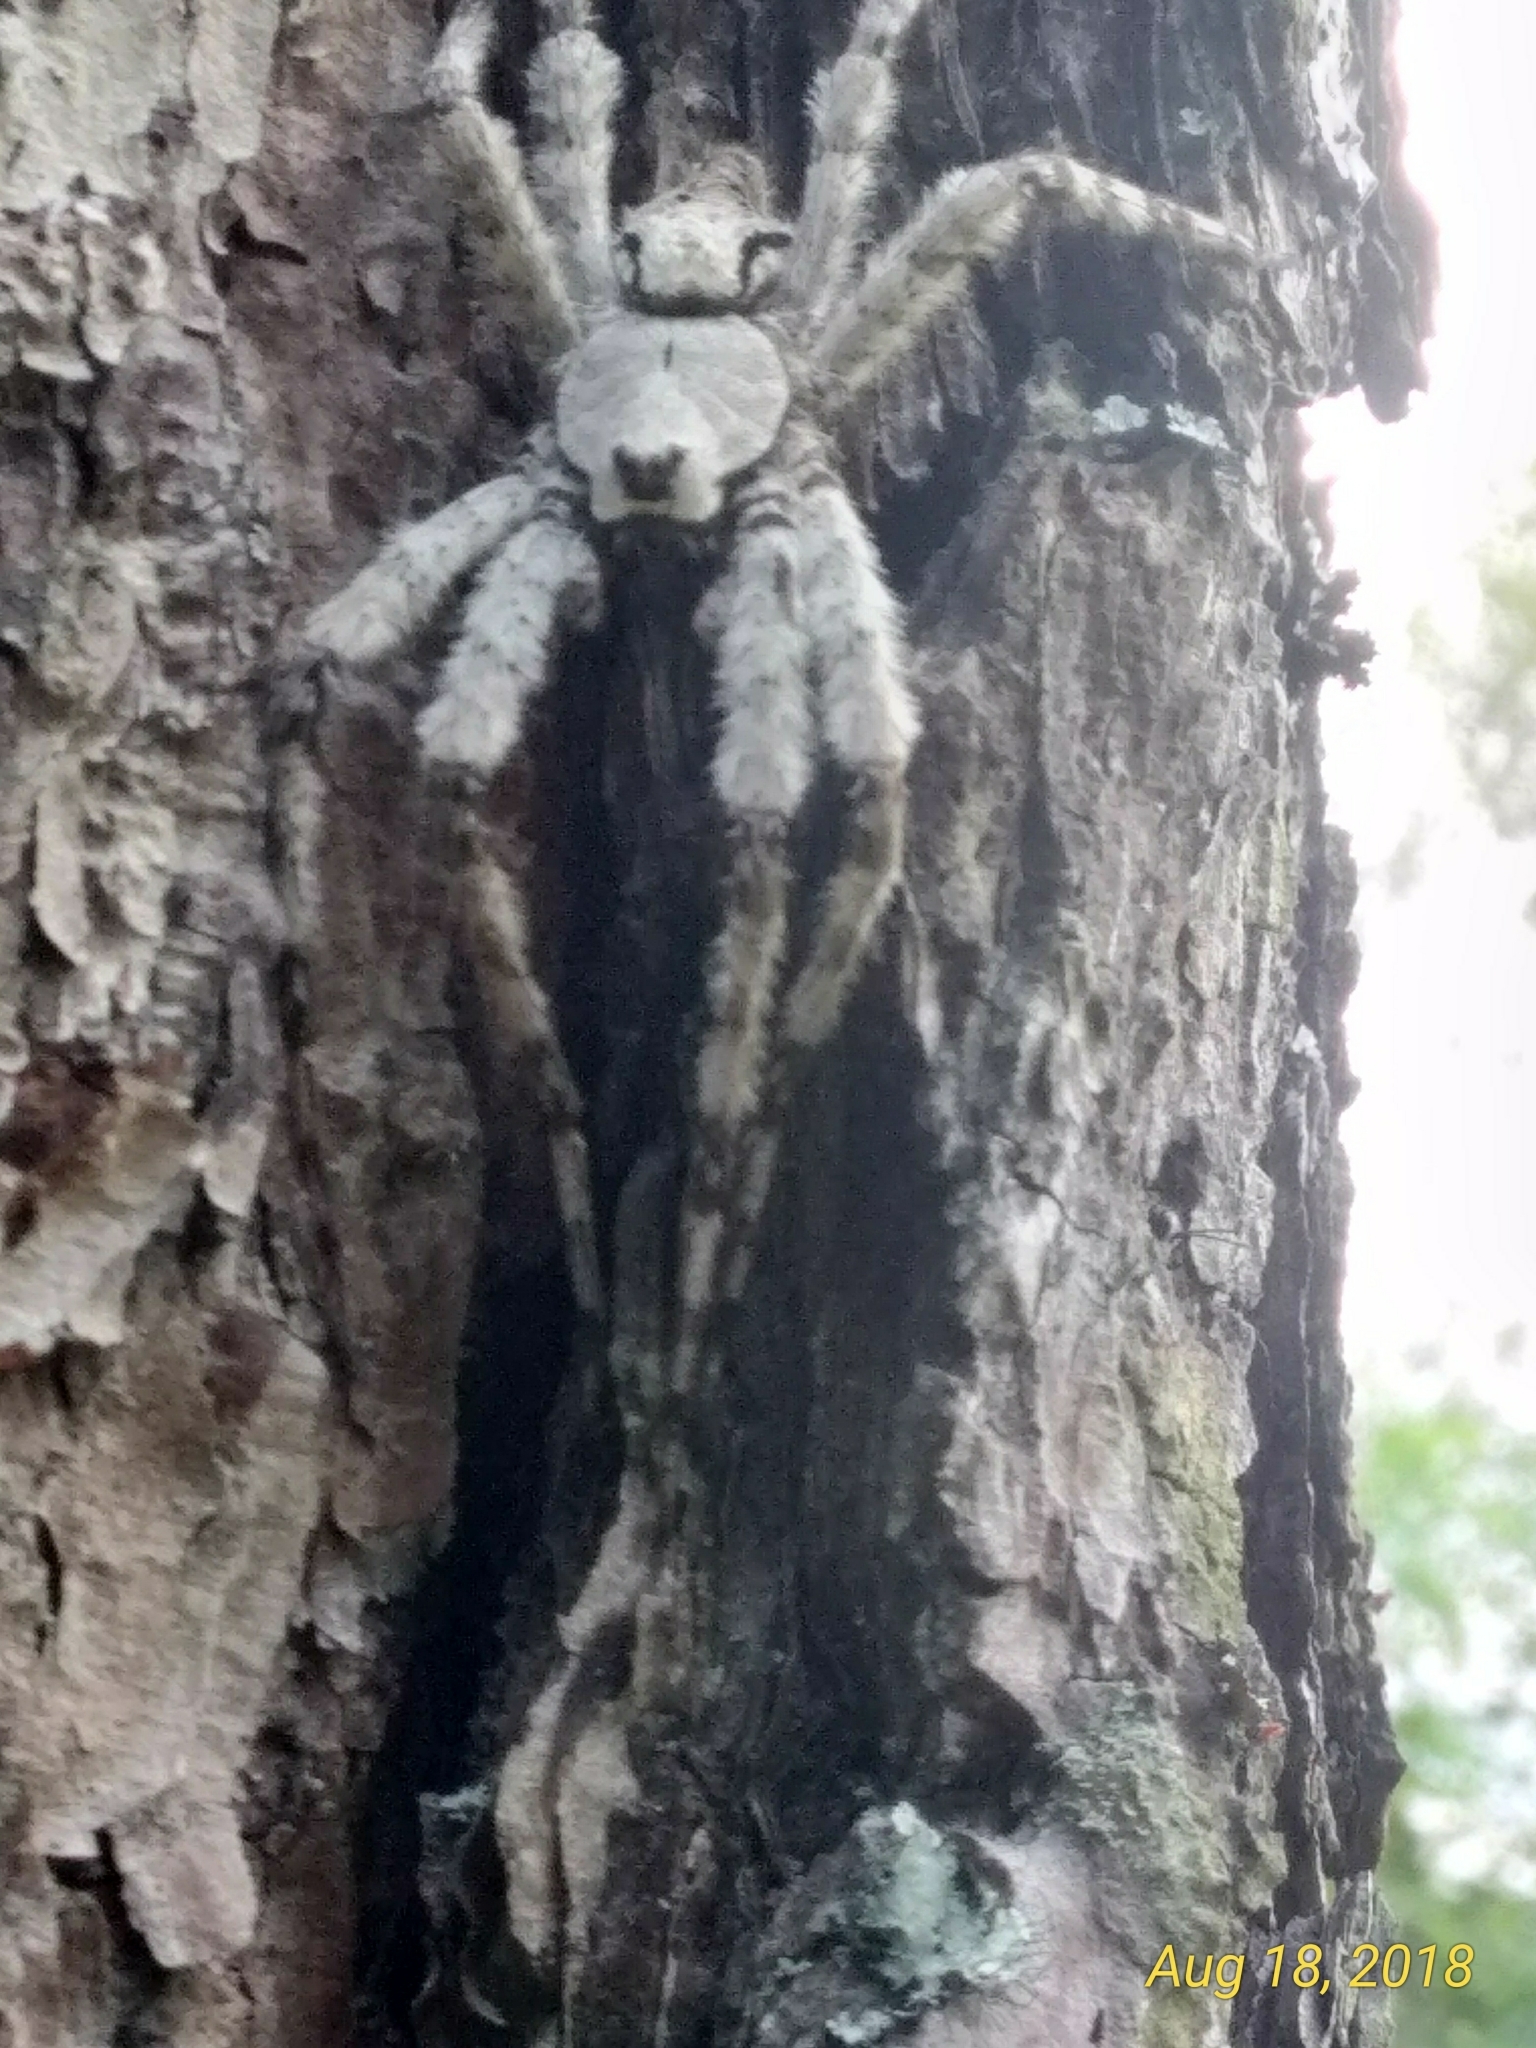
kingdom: Animalia
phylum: Arthropoda
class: Arachnida
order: Araneae
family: Pisauridae
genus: Dolomedes
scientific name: Dolomedes albineus
